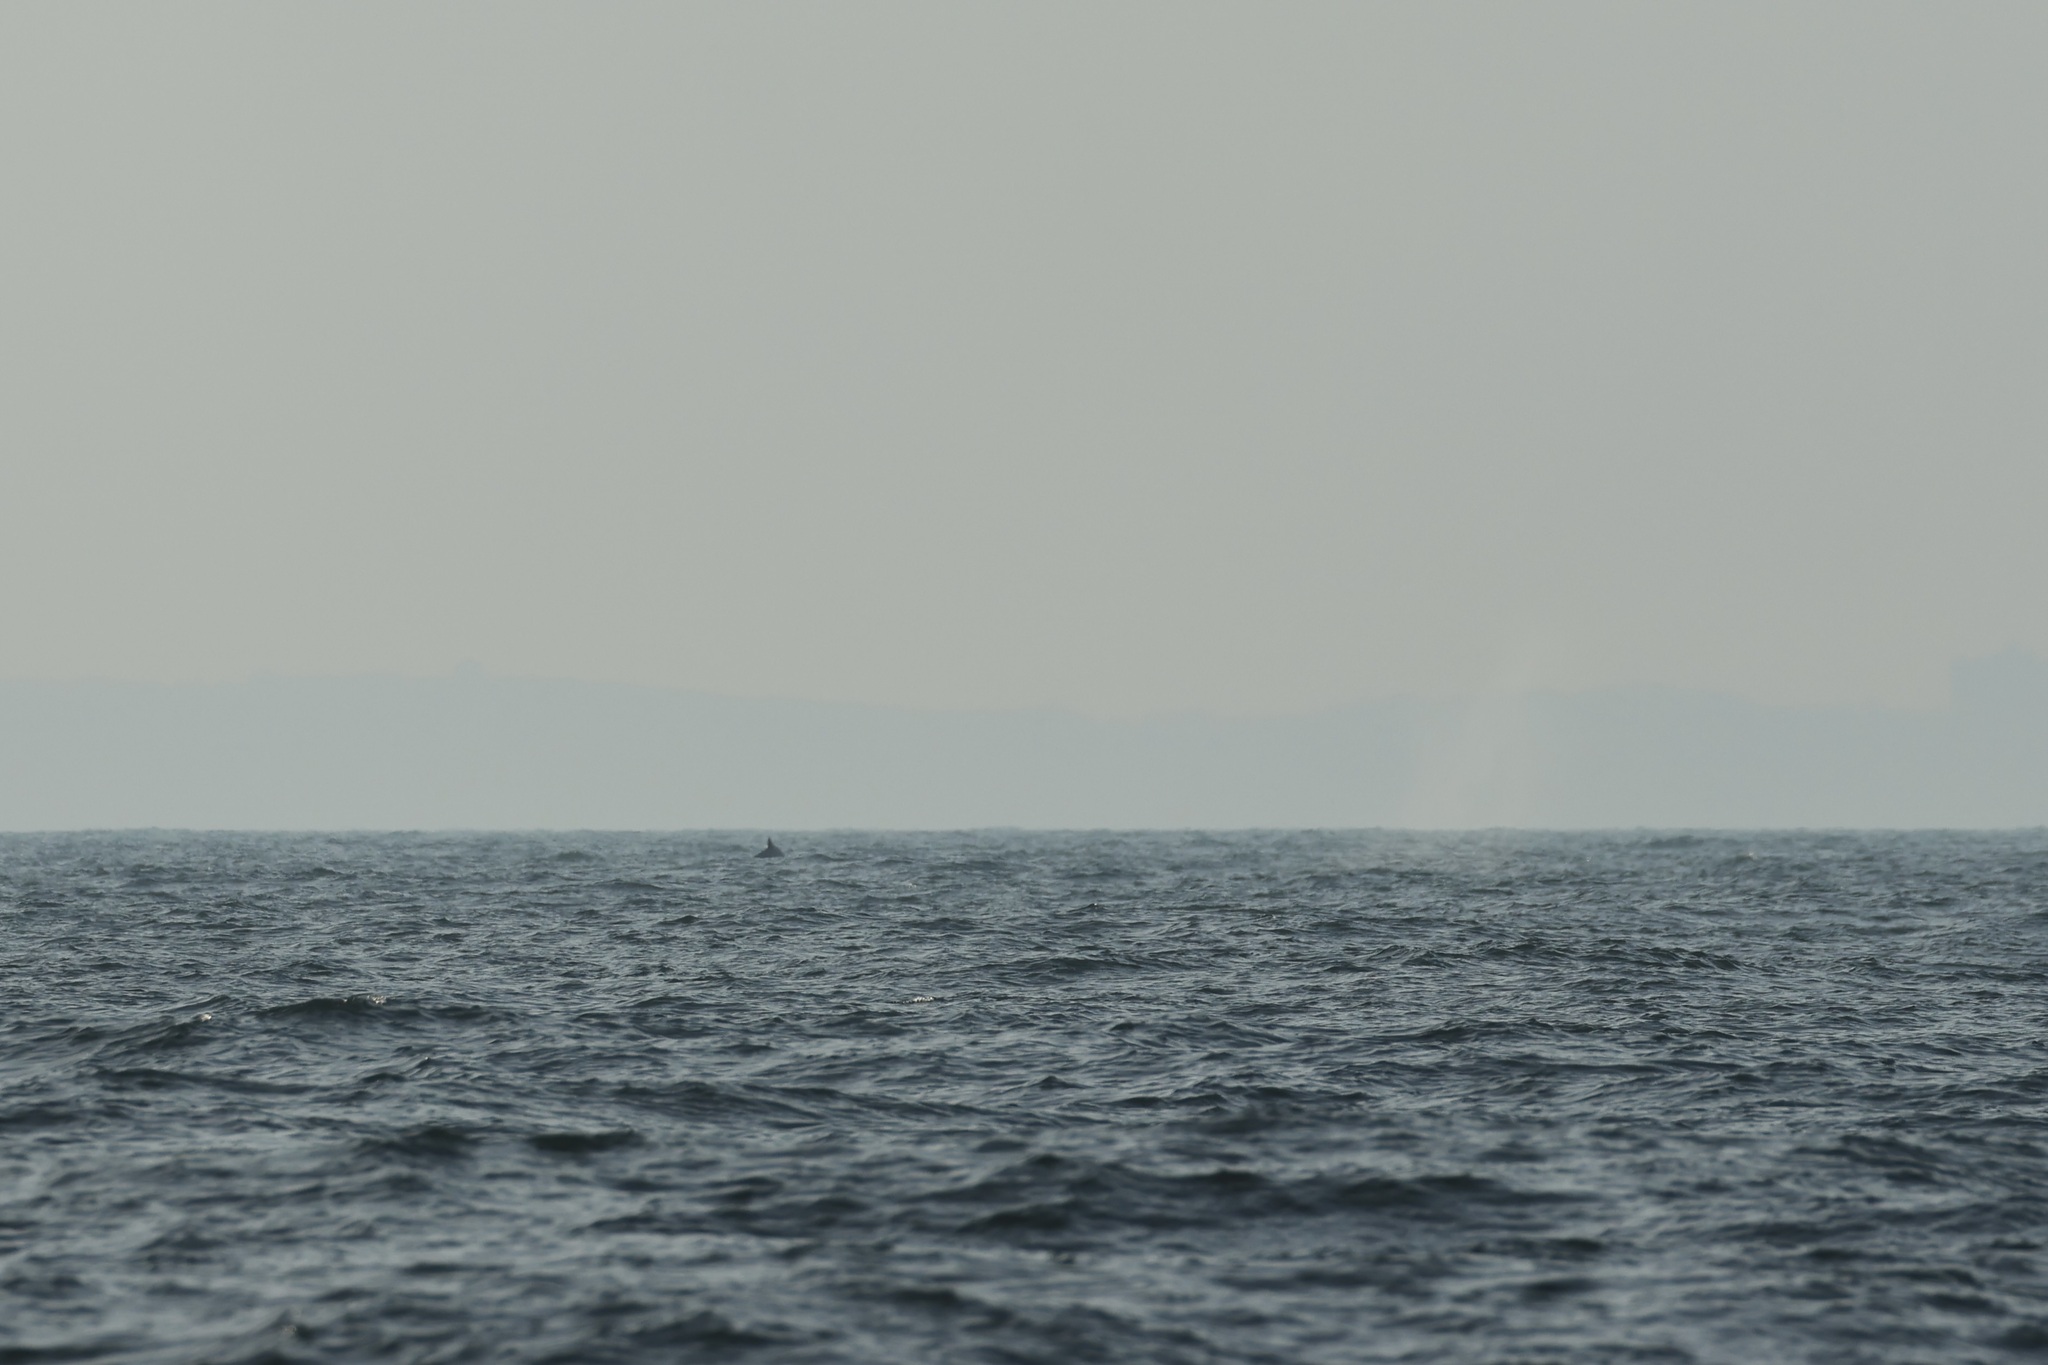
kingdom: Animalia
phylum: Chordata
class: Mammalia
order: Cetacea
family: Balaenopteridae
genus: Megaptera
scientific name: Megaptera novaeangliae
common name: Humpback whale
